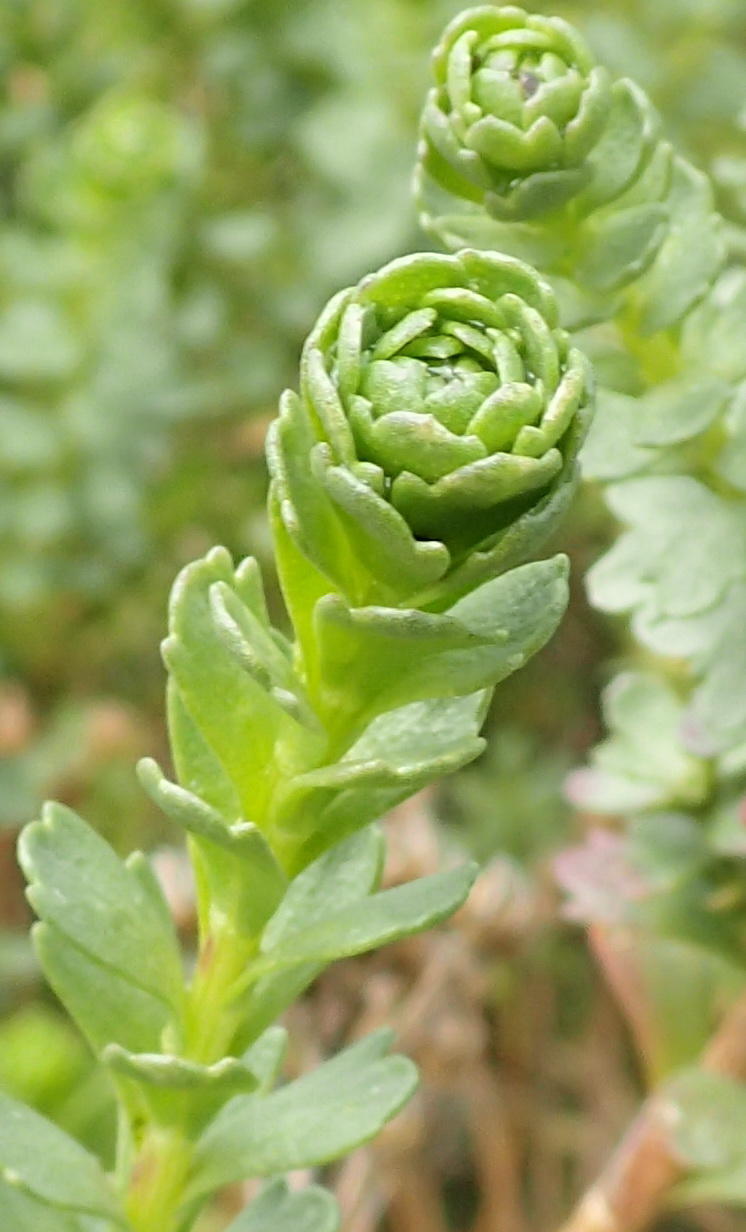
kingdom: Plantae
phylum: Tracheophyta
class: Magnoliopsida
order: Asterales
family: Asteraceae
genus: Athanasia
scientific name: Athanasia trifurcata
